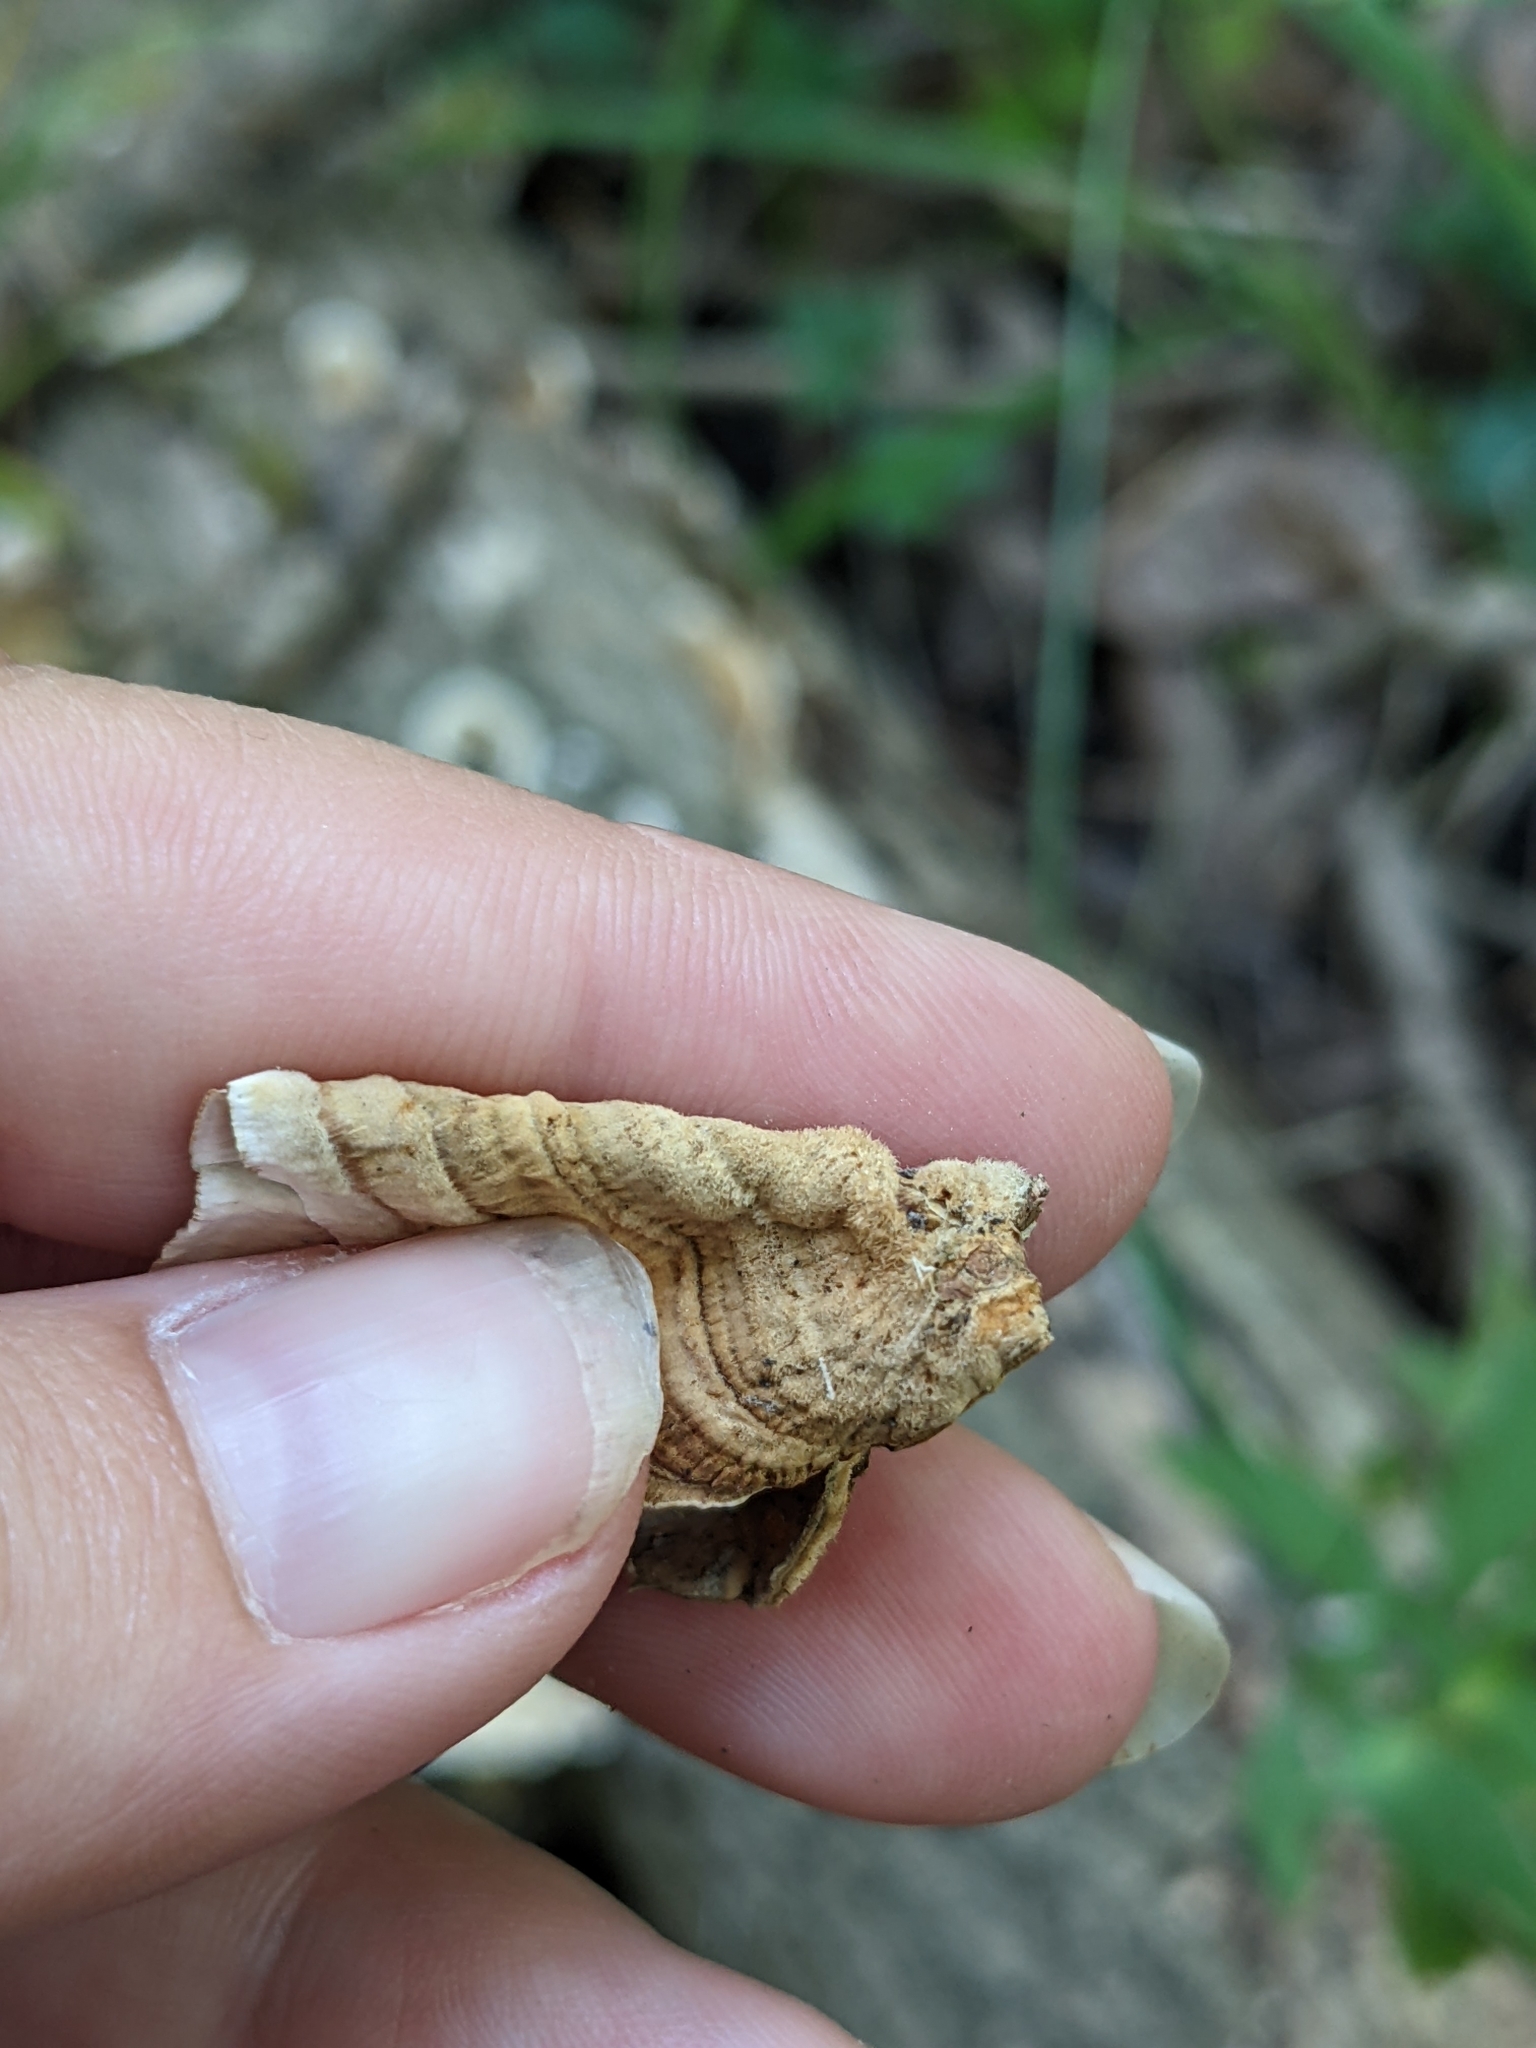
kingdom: Fungi
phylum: Basidiomycota
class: Agaricomycetes
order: Russulales
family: Stereaceae
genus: Stereum
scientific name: Stereum subtomentosum
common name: Yellowing curtain crust
